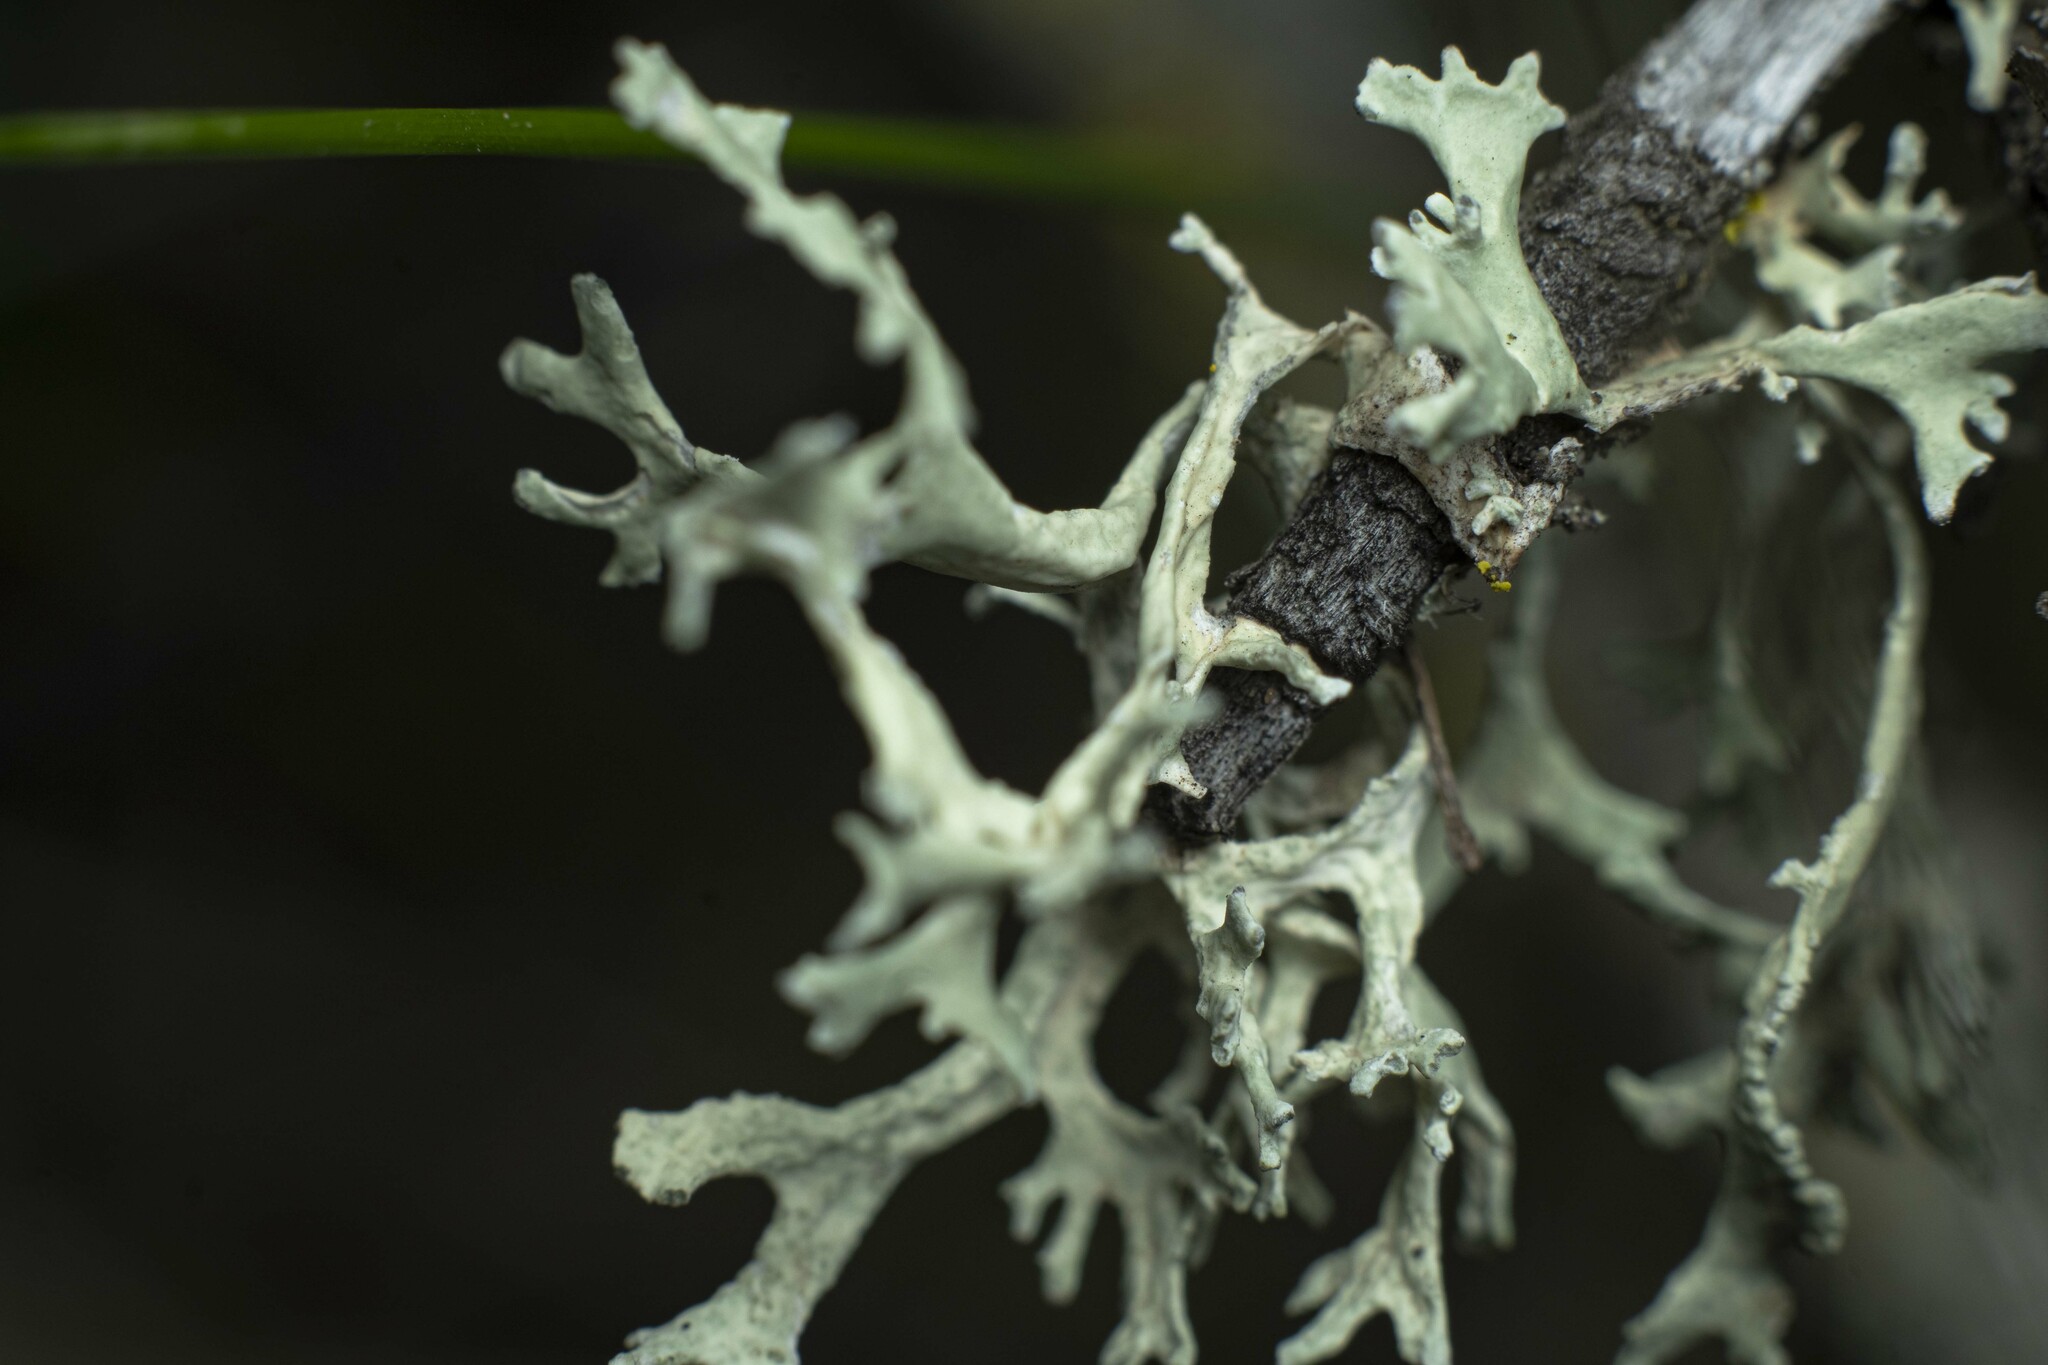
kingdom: Fungi
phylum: Ascomycota
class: Lecanoromycetes
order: Lecanorales
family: Parmeliaceae
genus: Evernia
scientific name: Evernia prunastri
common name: Oak moss
